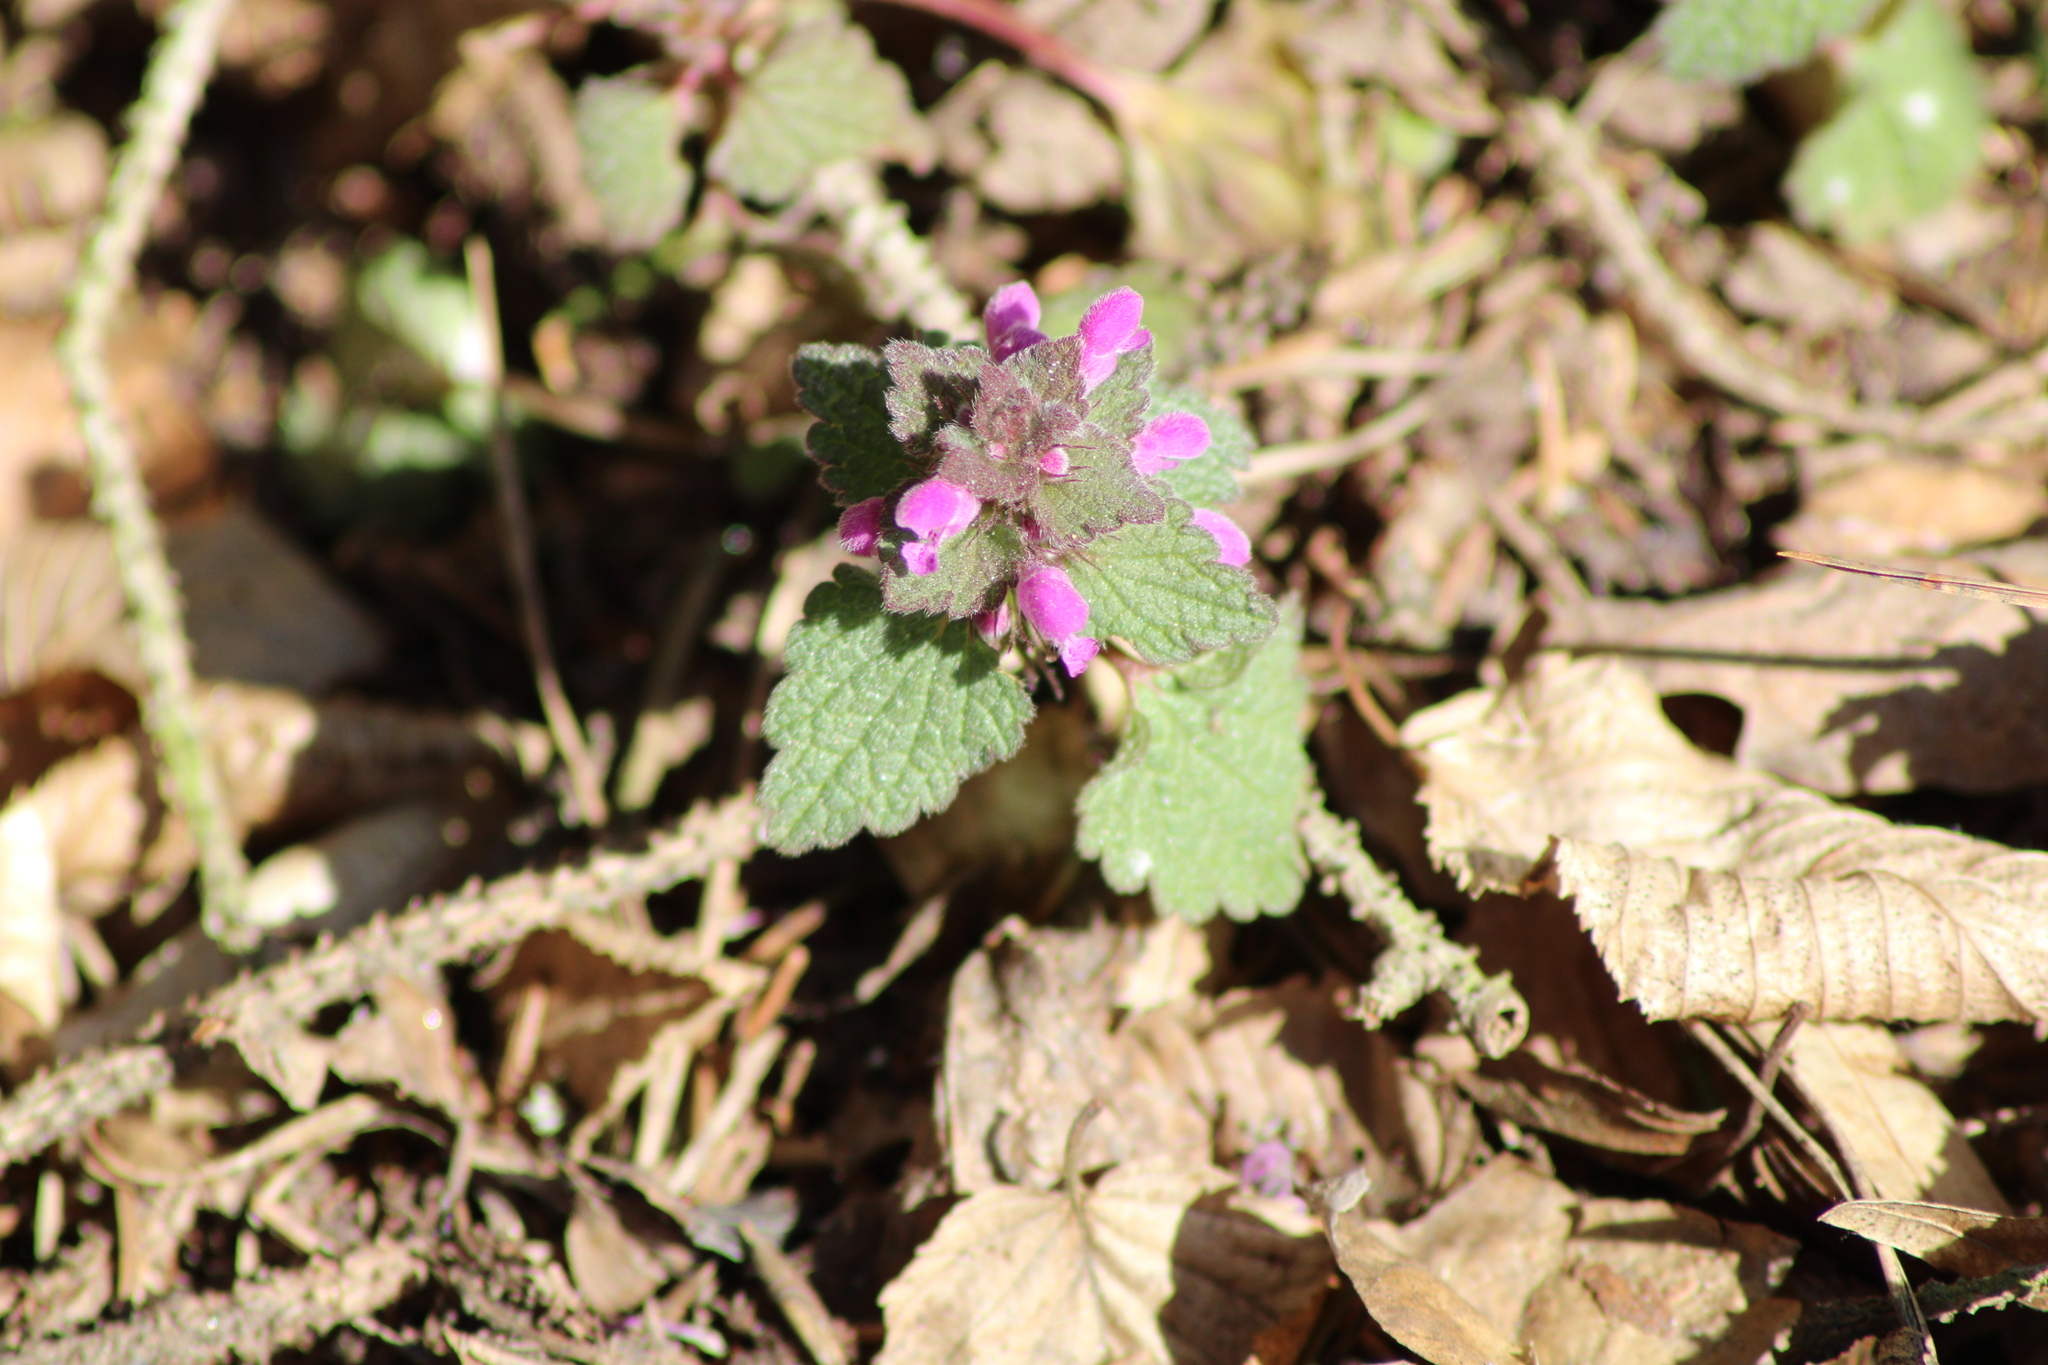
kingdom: Plantae
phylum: Tracheophyta
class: Magnoliopsida
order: Lamiales
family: Lamiaceae
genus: Lamium
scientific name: Lamium purpureum
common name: Red dead-nettle
